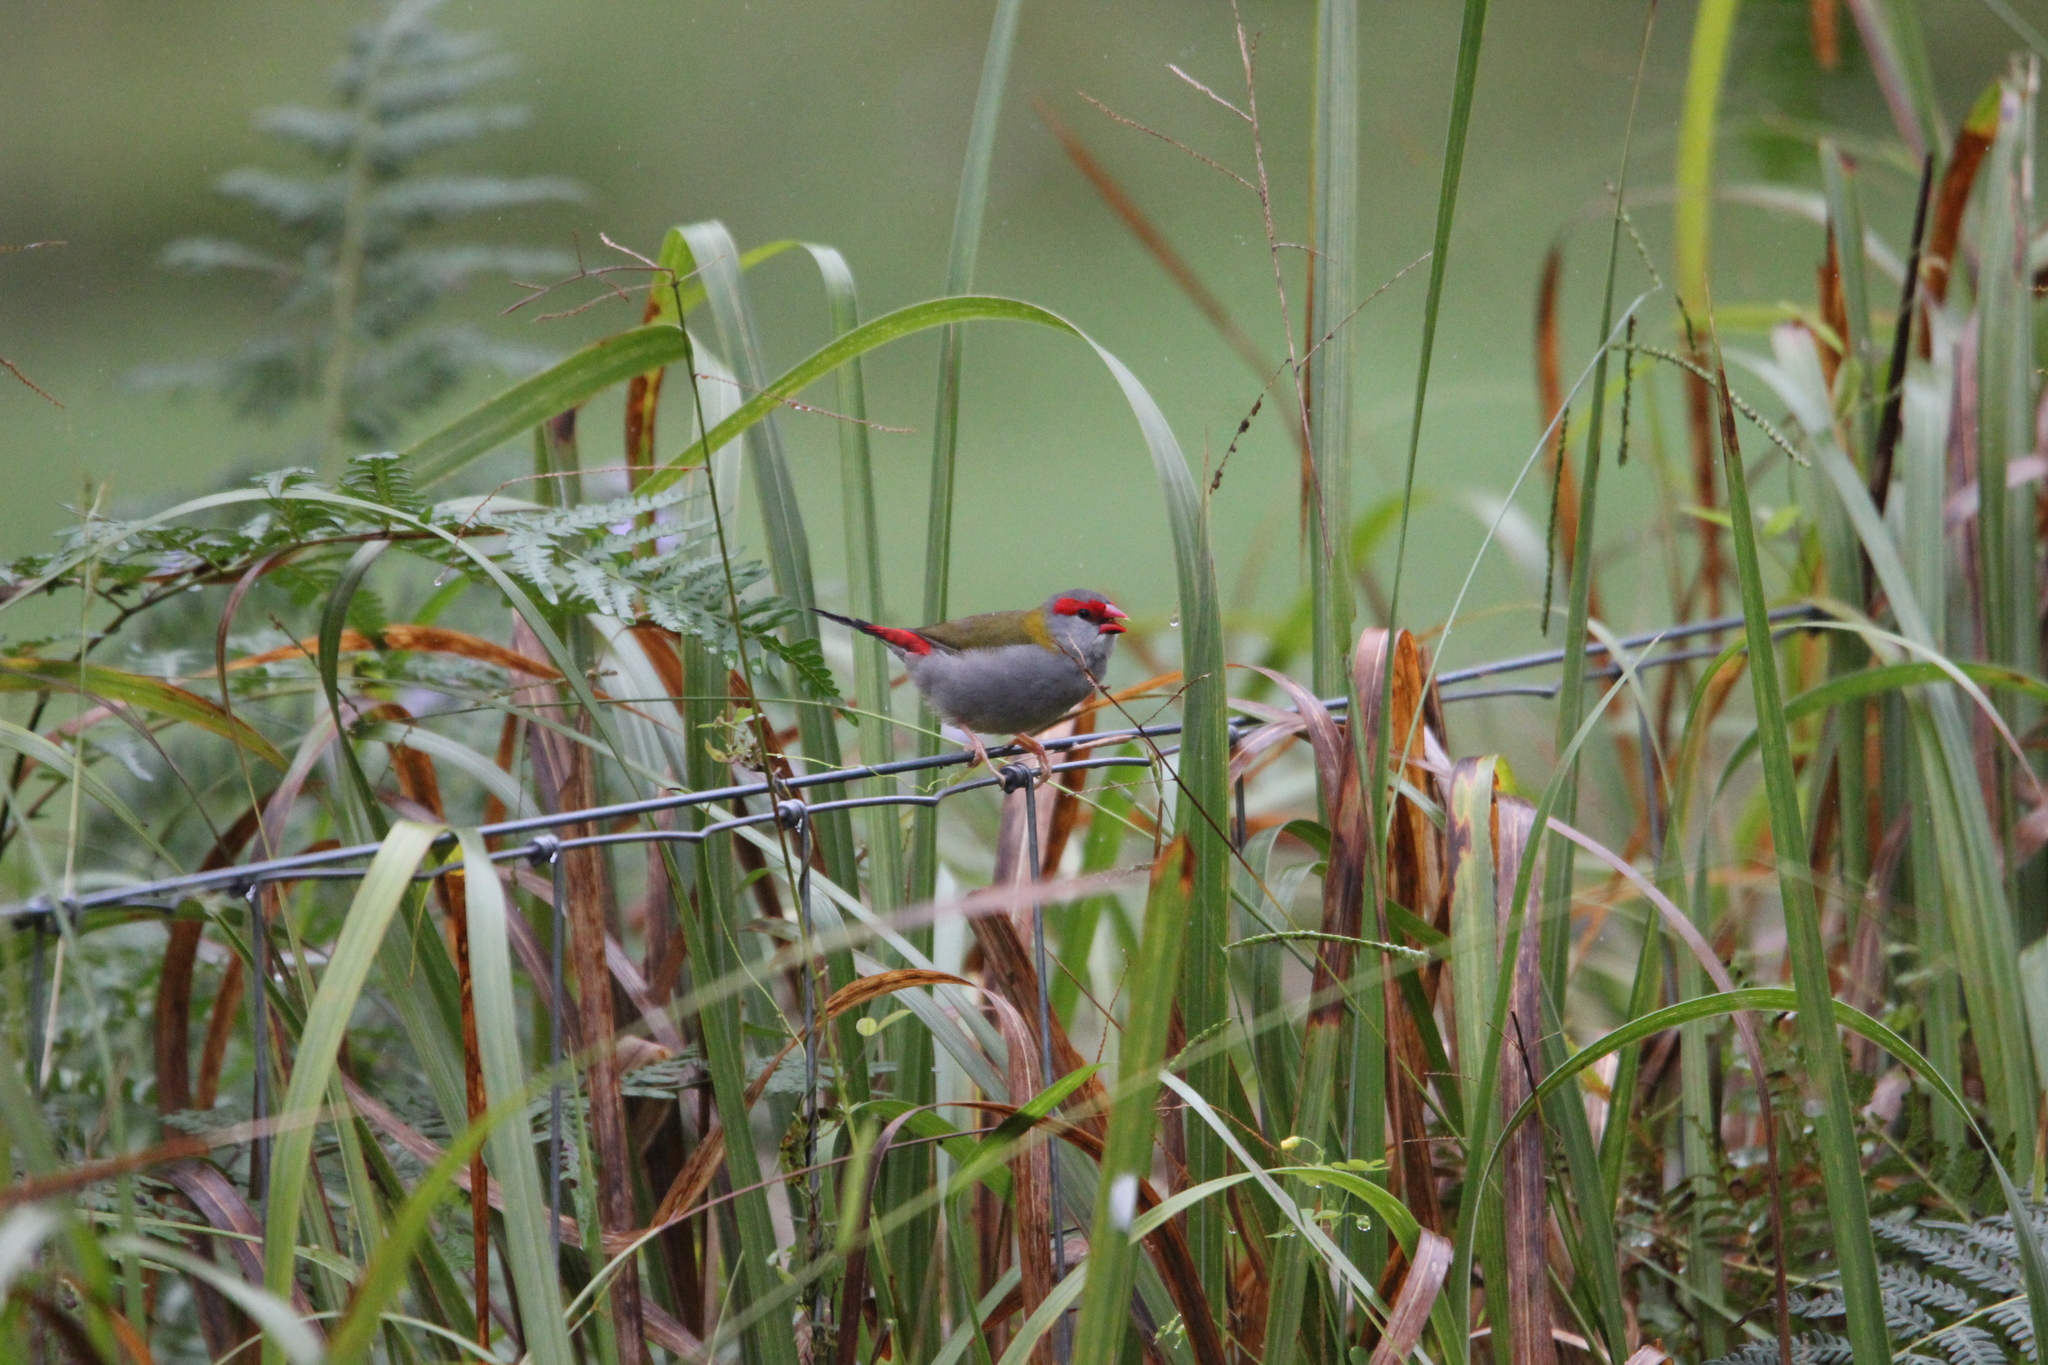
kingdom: Animalia
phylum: Chordata
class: Aves
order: Passeriformes
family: Estrildidae
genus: Neochmia
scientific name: Neochmia temporalis
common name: Red-browed finch
